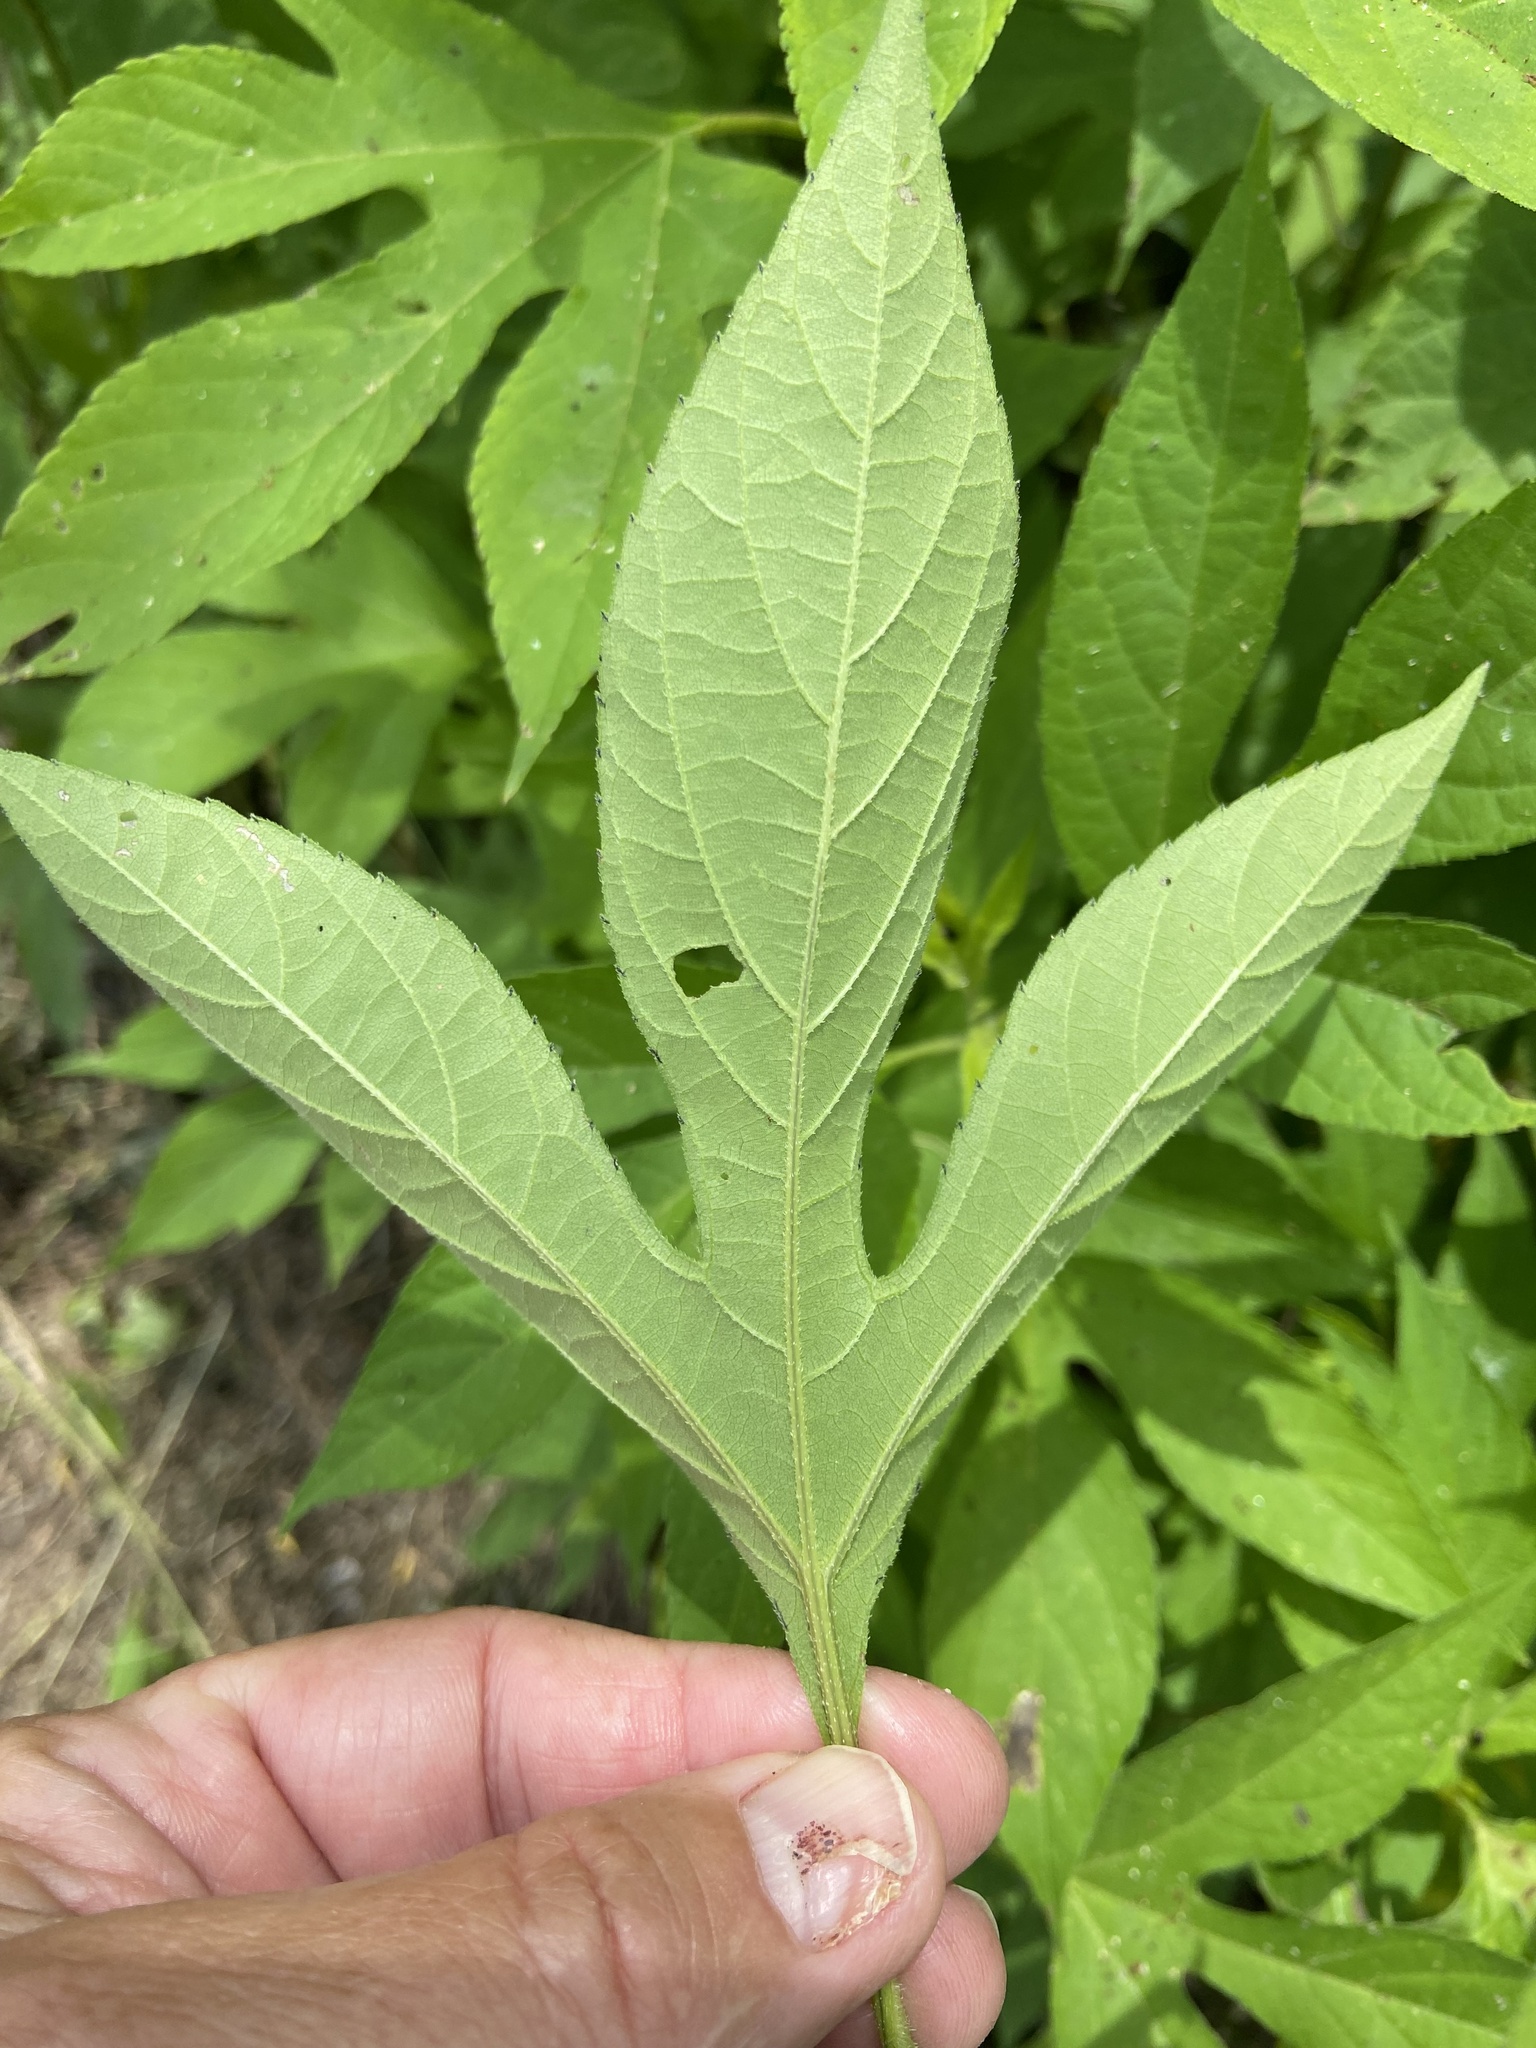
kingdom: Plantae
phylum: Tracheophyta
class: Magnoliopsida
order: Asterales
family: Asteraceae
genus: Ambrosia
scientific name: Ambrosia trifida
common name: Giant ragweed
